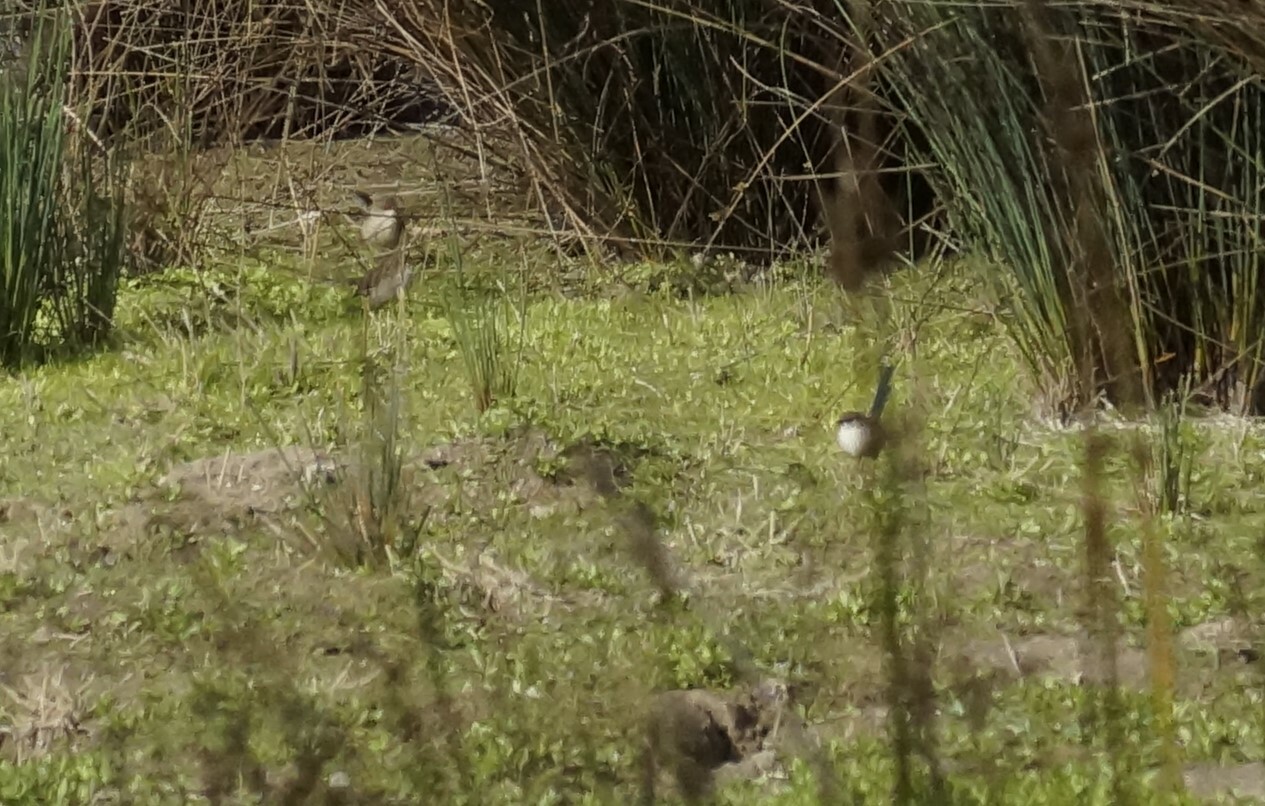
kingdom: Animalia
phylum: Chordata
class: Aves
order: Passeriformes
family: Maluridae
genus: Malurus
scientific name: Malurus cyaneus
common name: Superb fairywren
